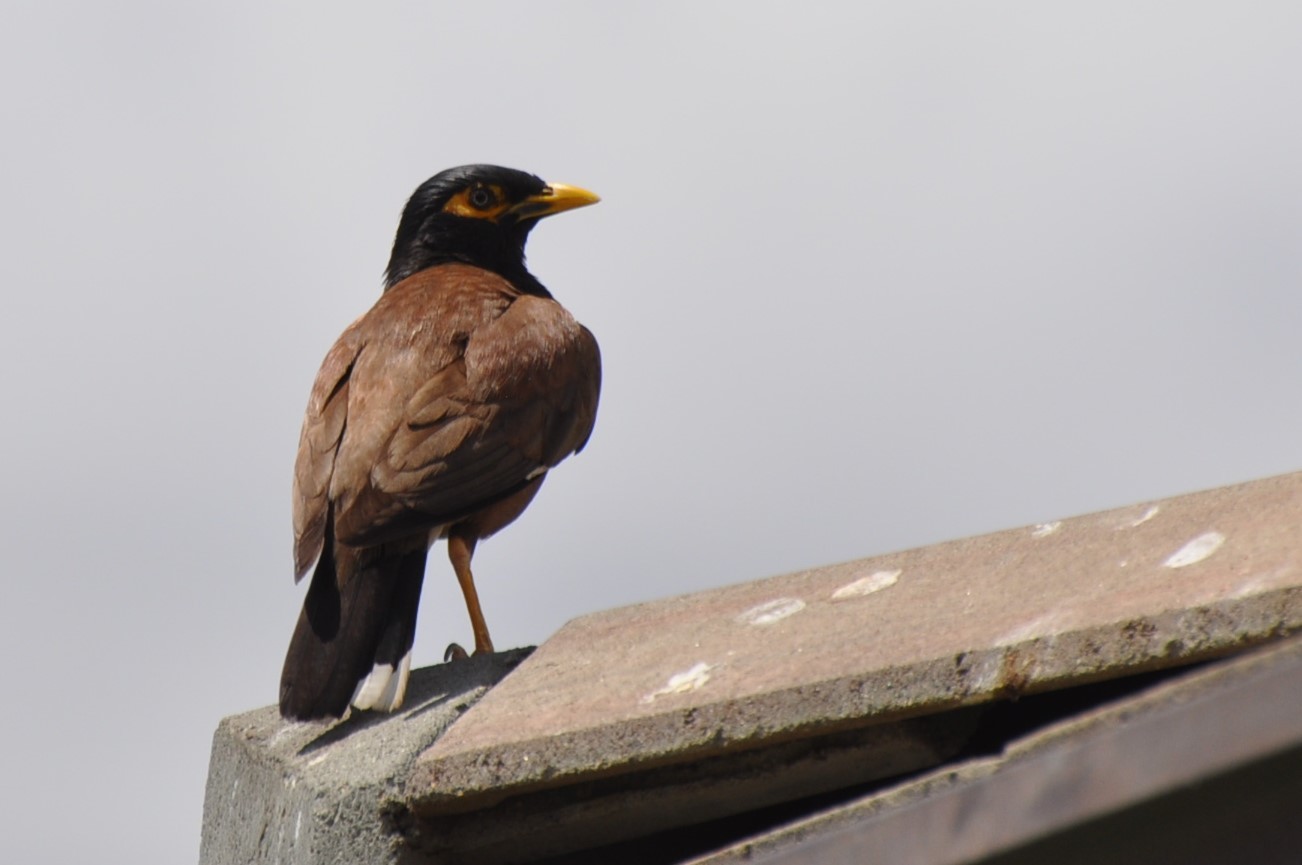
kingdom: Animalia
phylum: Chordata
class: Aves
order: Passeriformes
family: Sturnidae
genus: Acridotheres
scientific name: Acridotheres tristis
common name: Common myna
